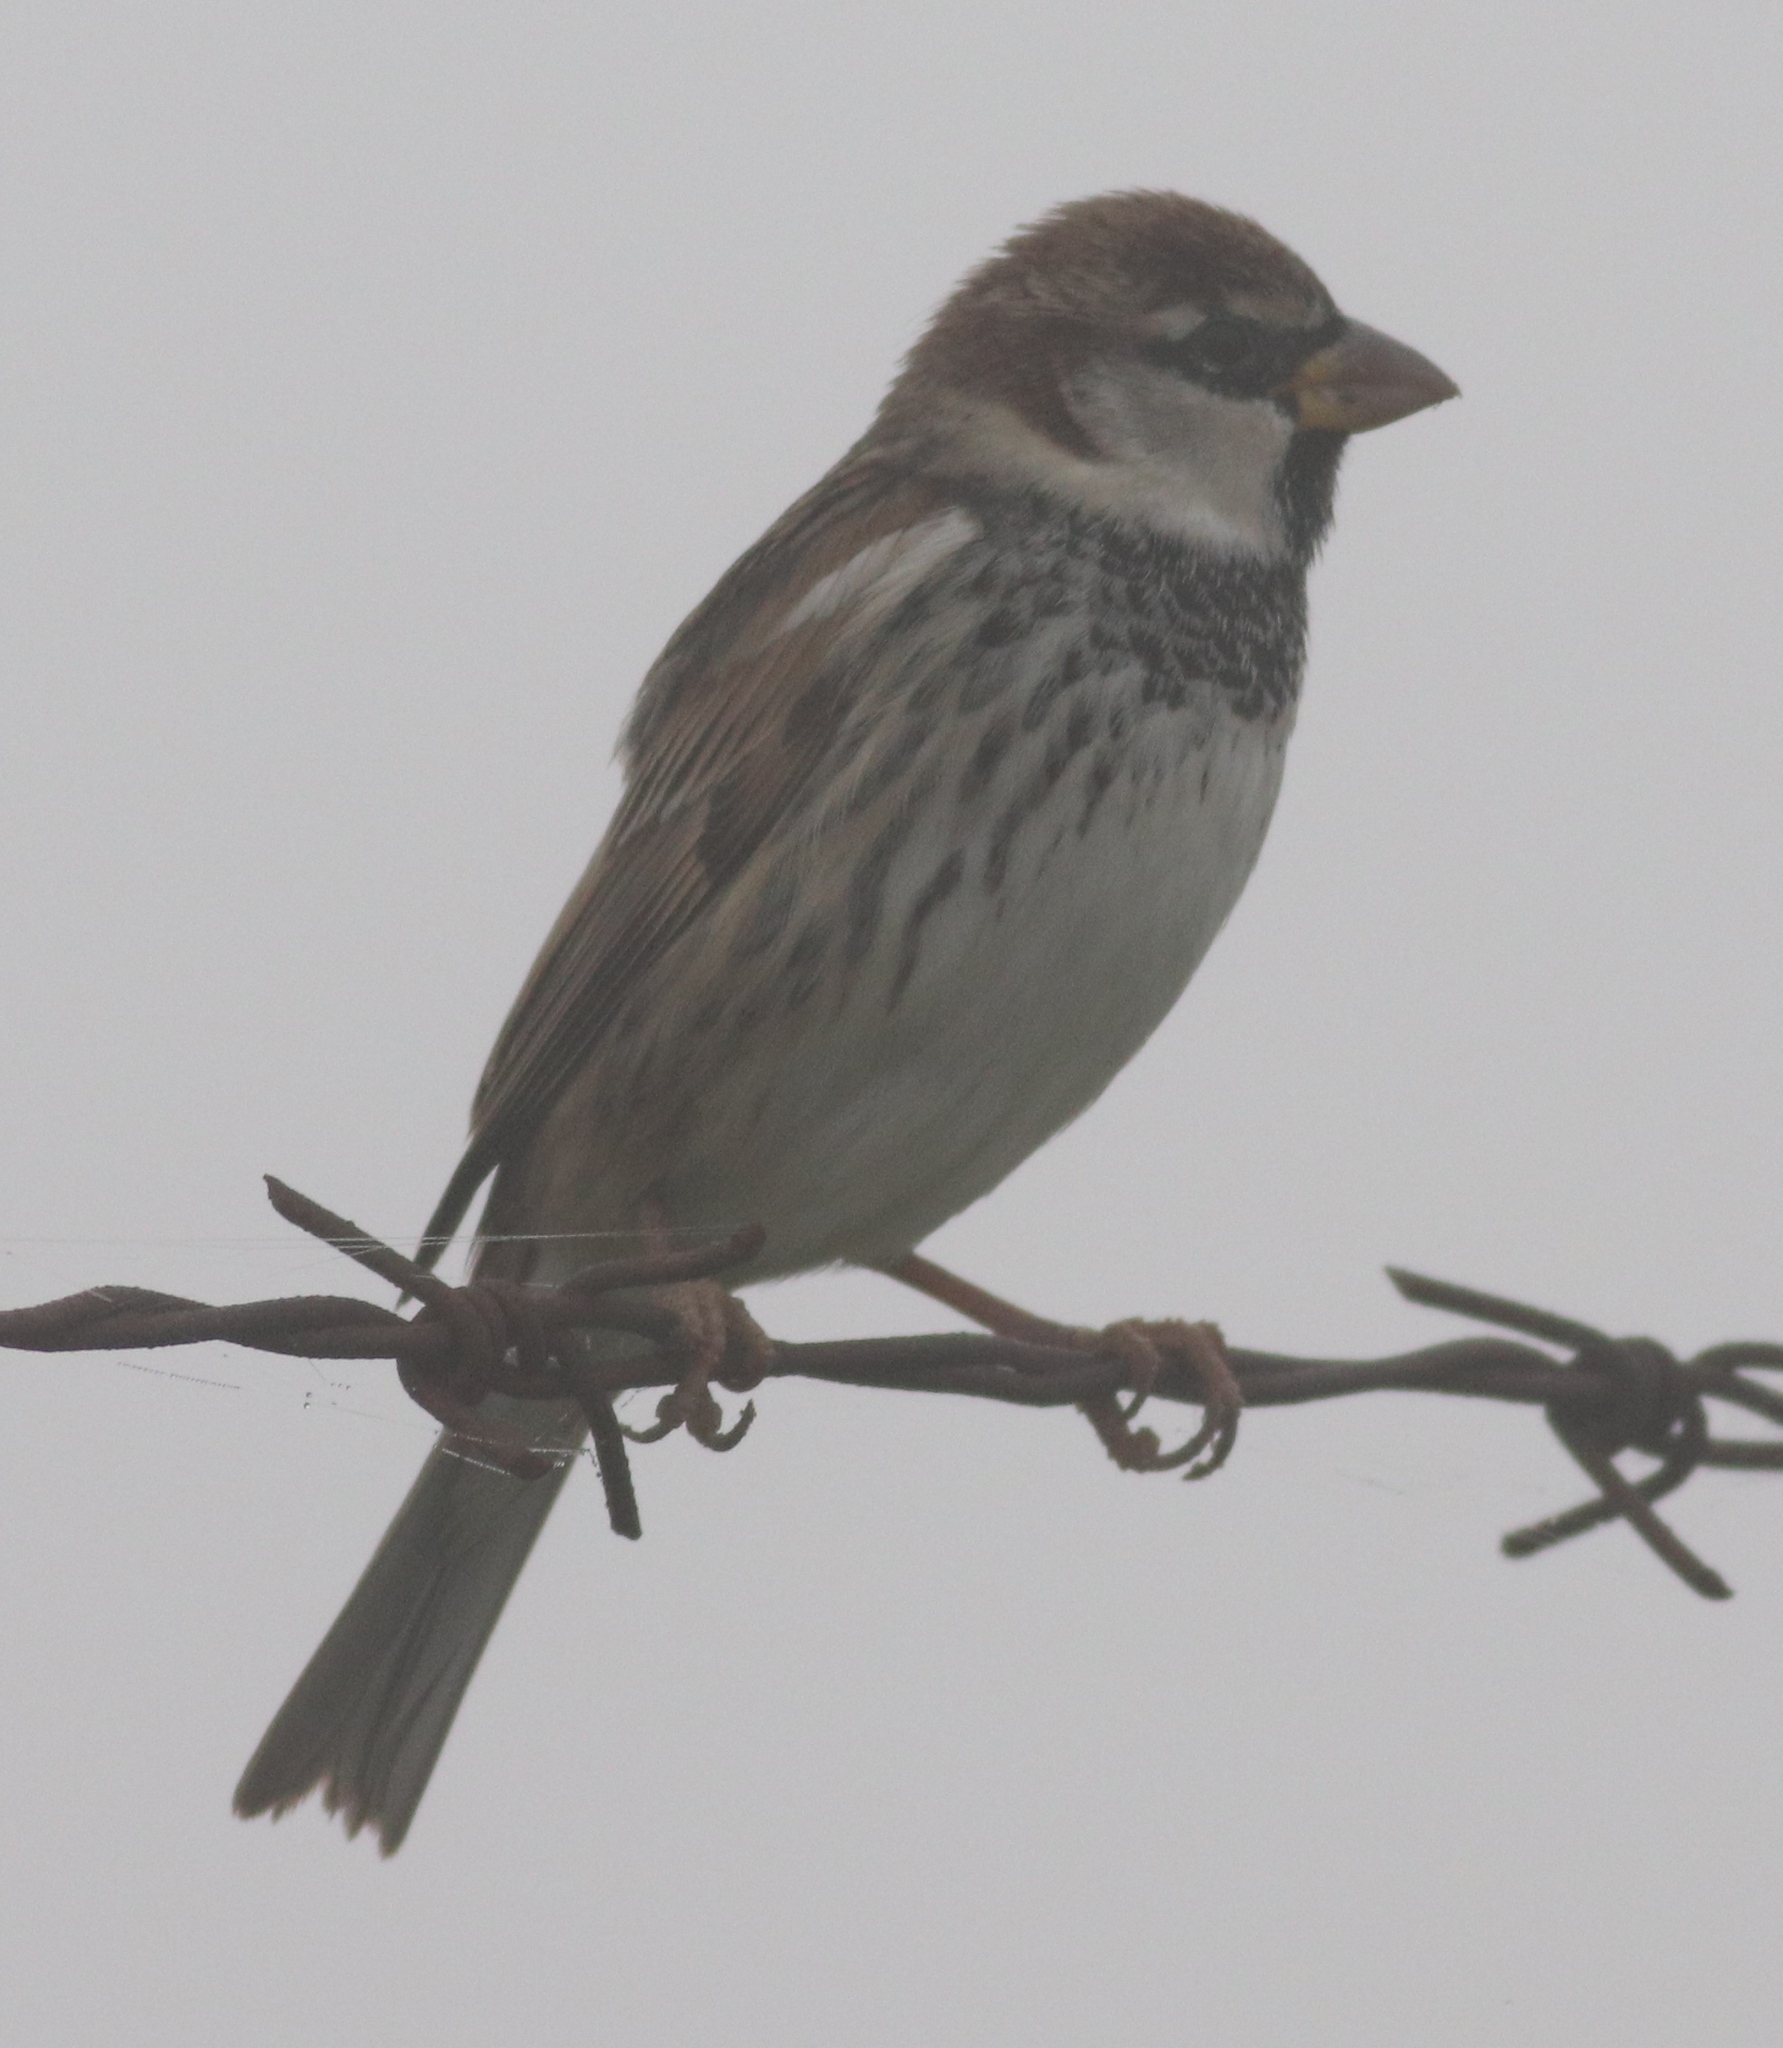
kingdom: Animalia
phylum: Chordata
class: Aves
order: Passeriformes
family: Passeridae
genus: Passer
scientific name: Passer hispaniolensis
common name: Spanish sparrow
